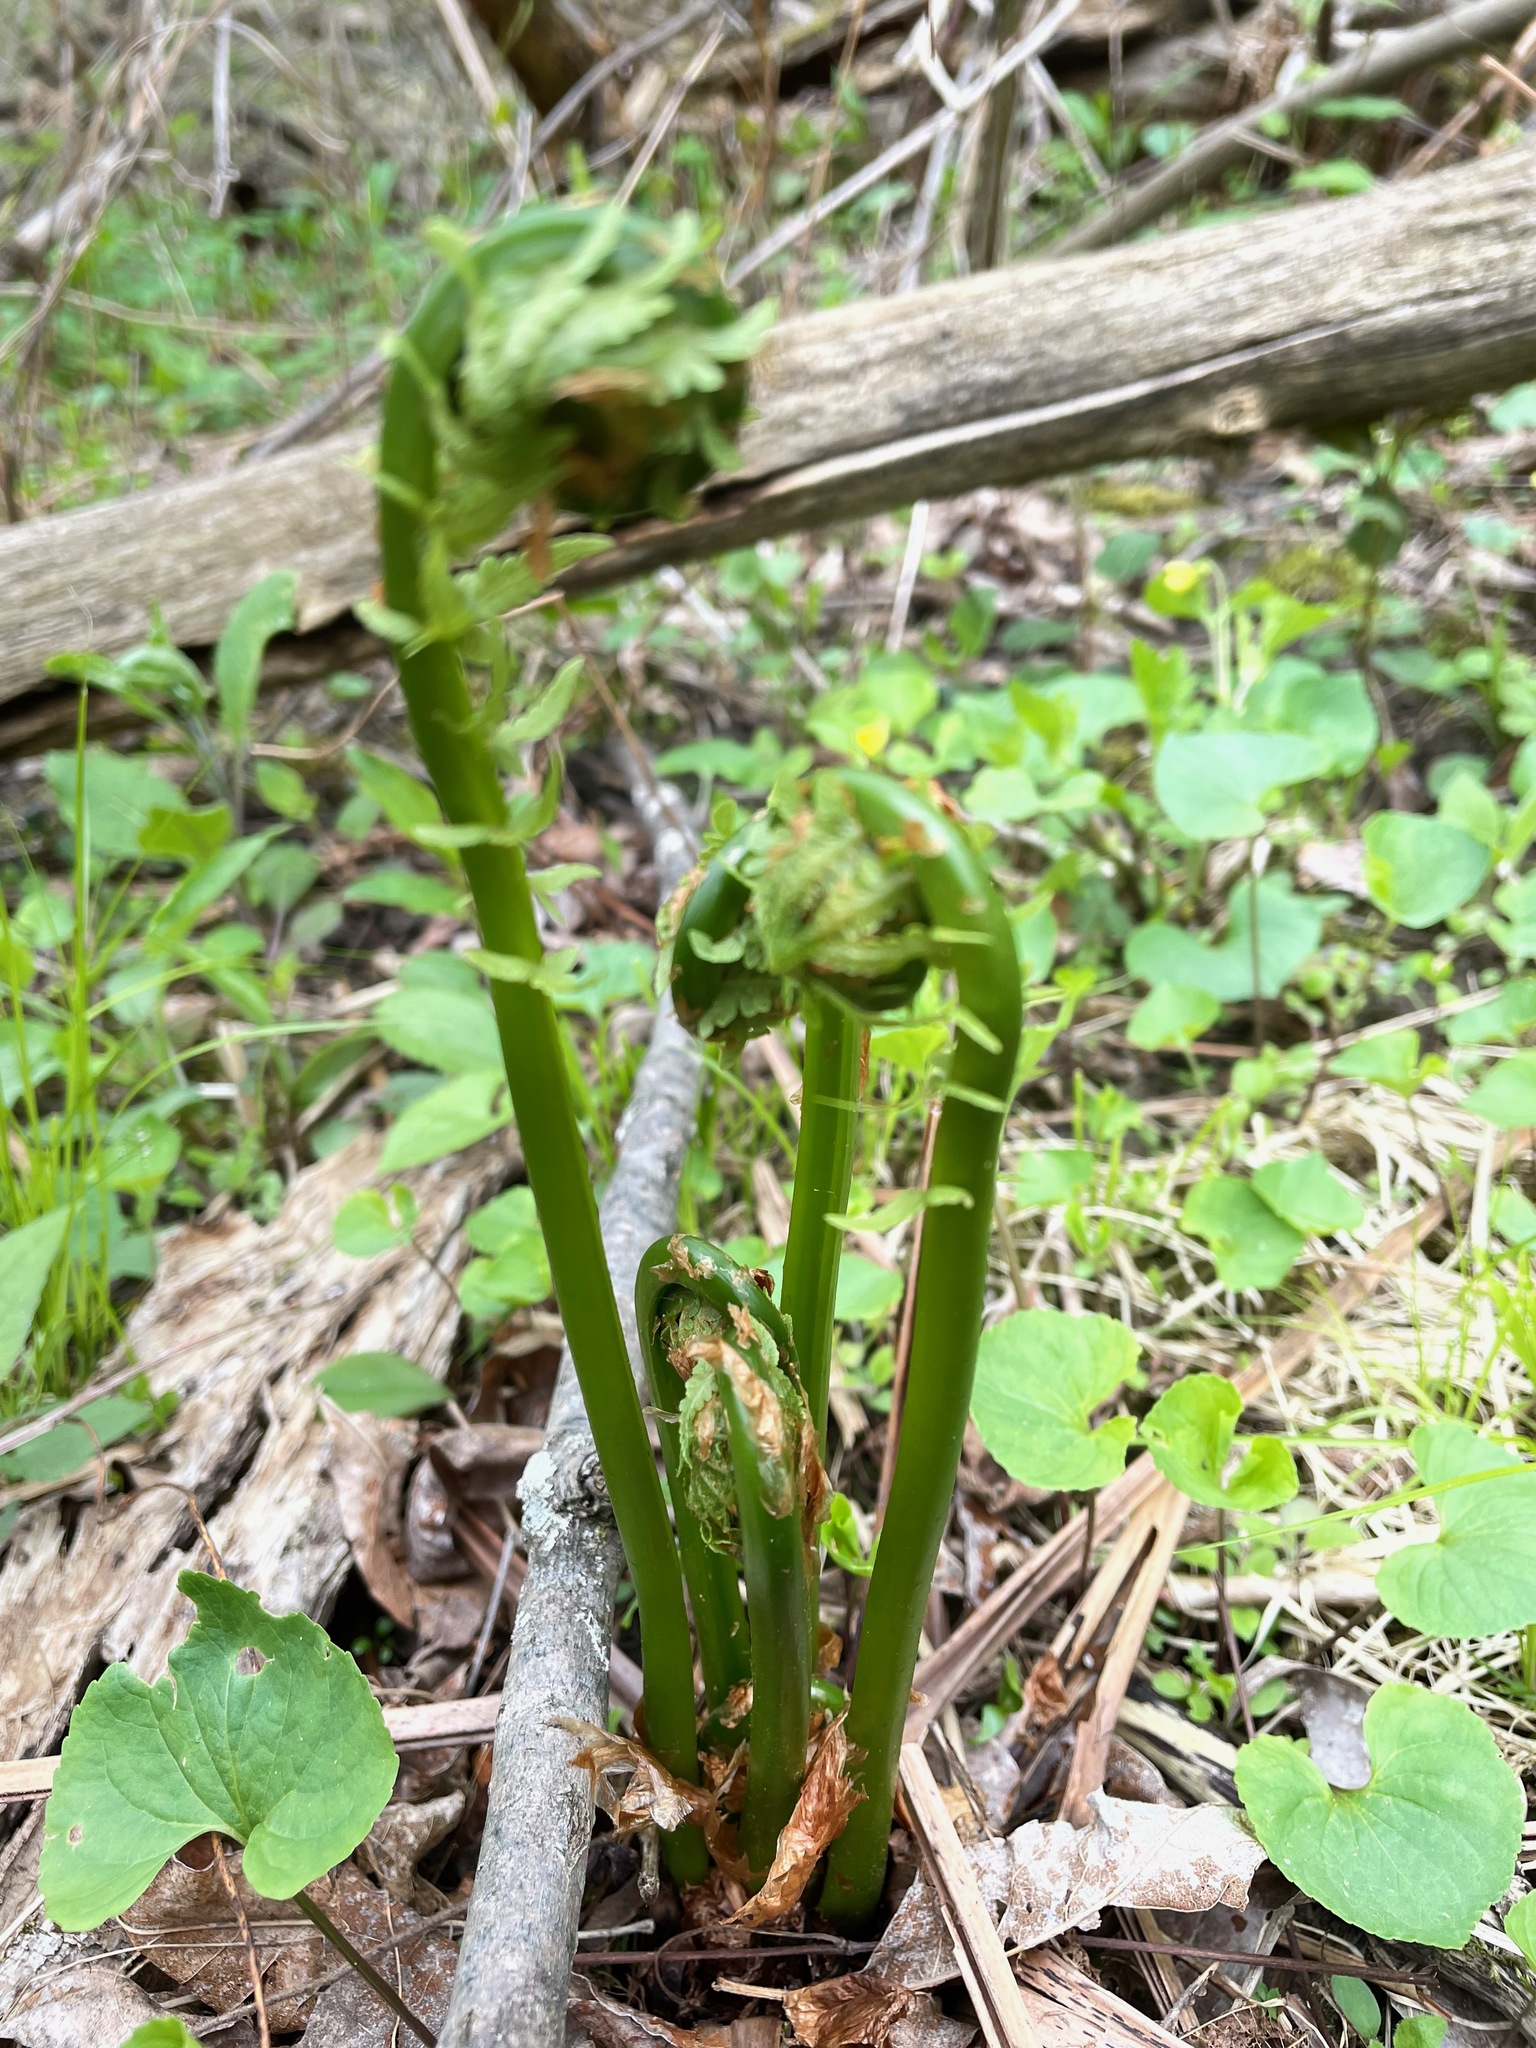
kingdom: Plantae
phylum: Tracheophyta
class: Polypodiopsida
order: Polypodiales
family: Onocleaceae
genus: Matteuccia
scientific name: Matteuccia struthiopteris
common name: Ostrich fern
